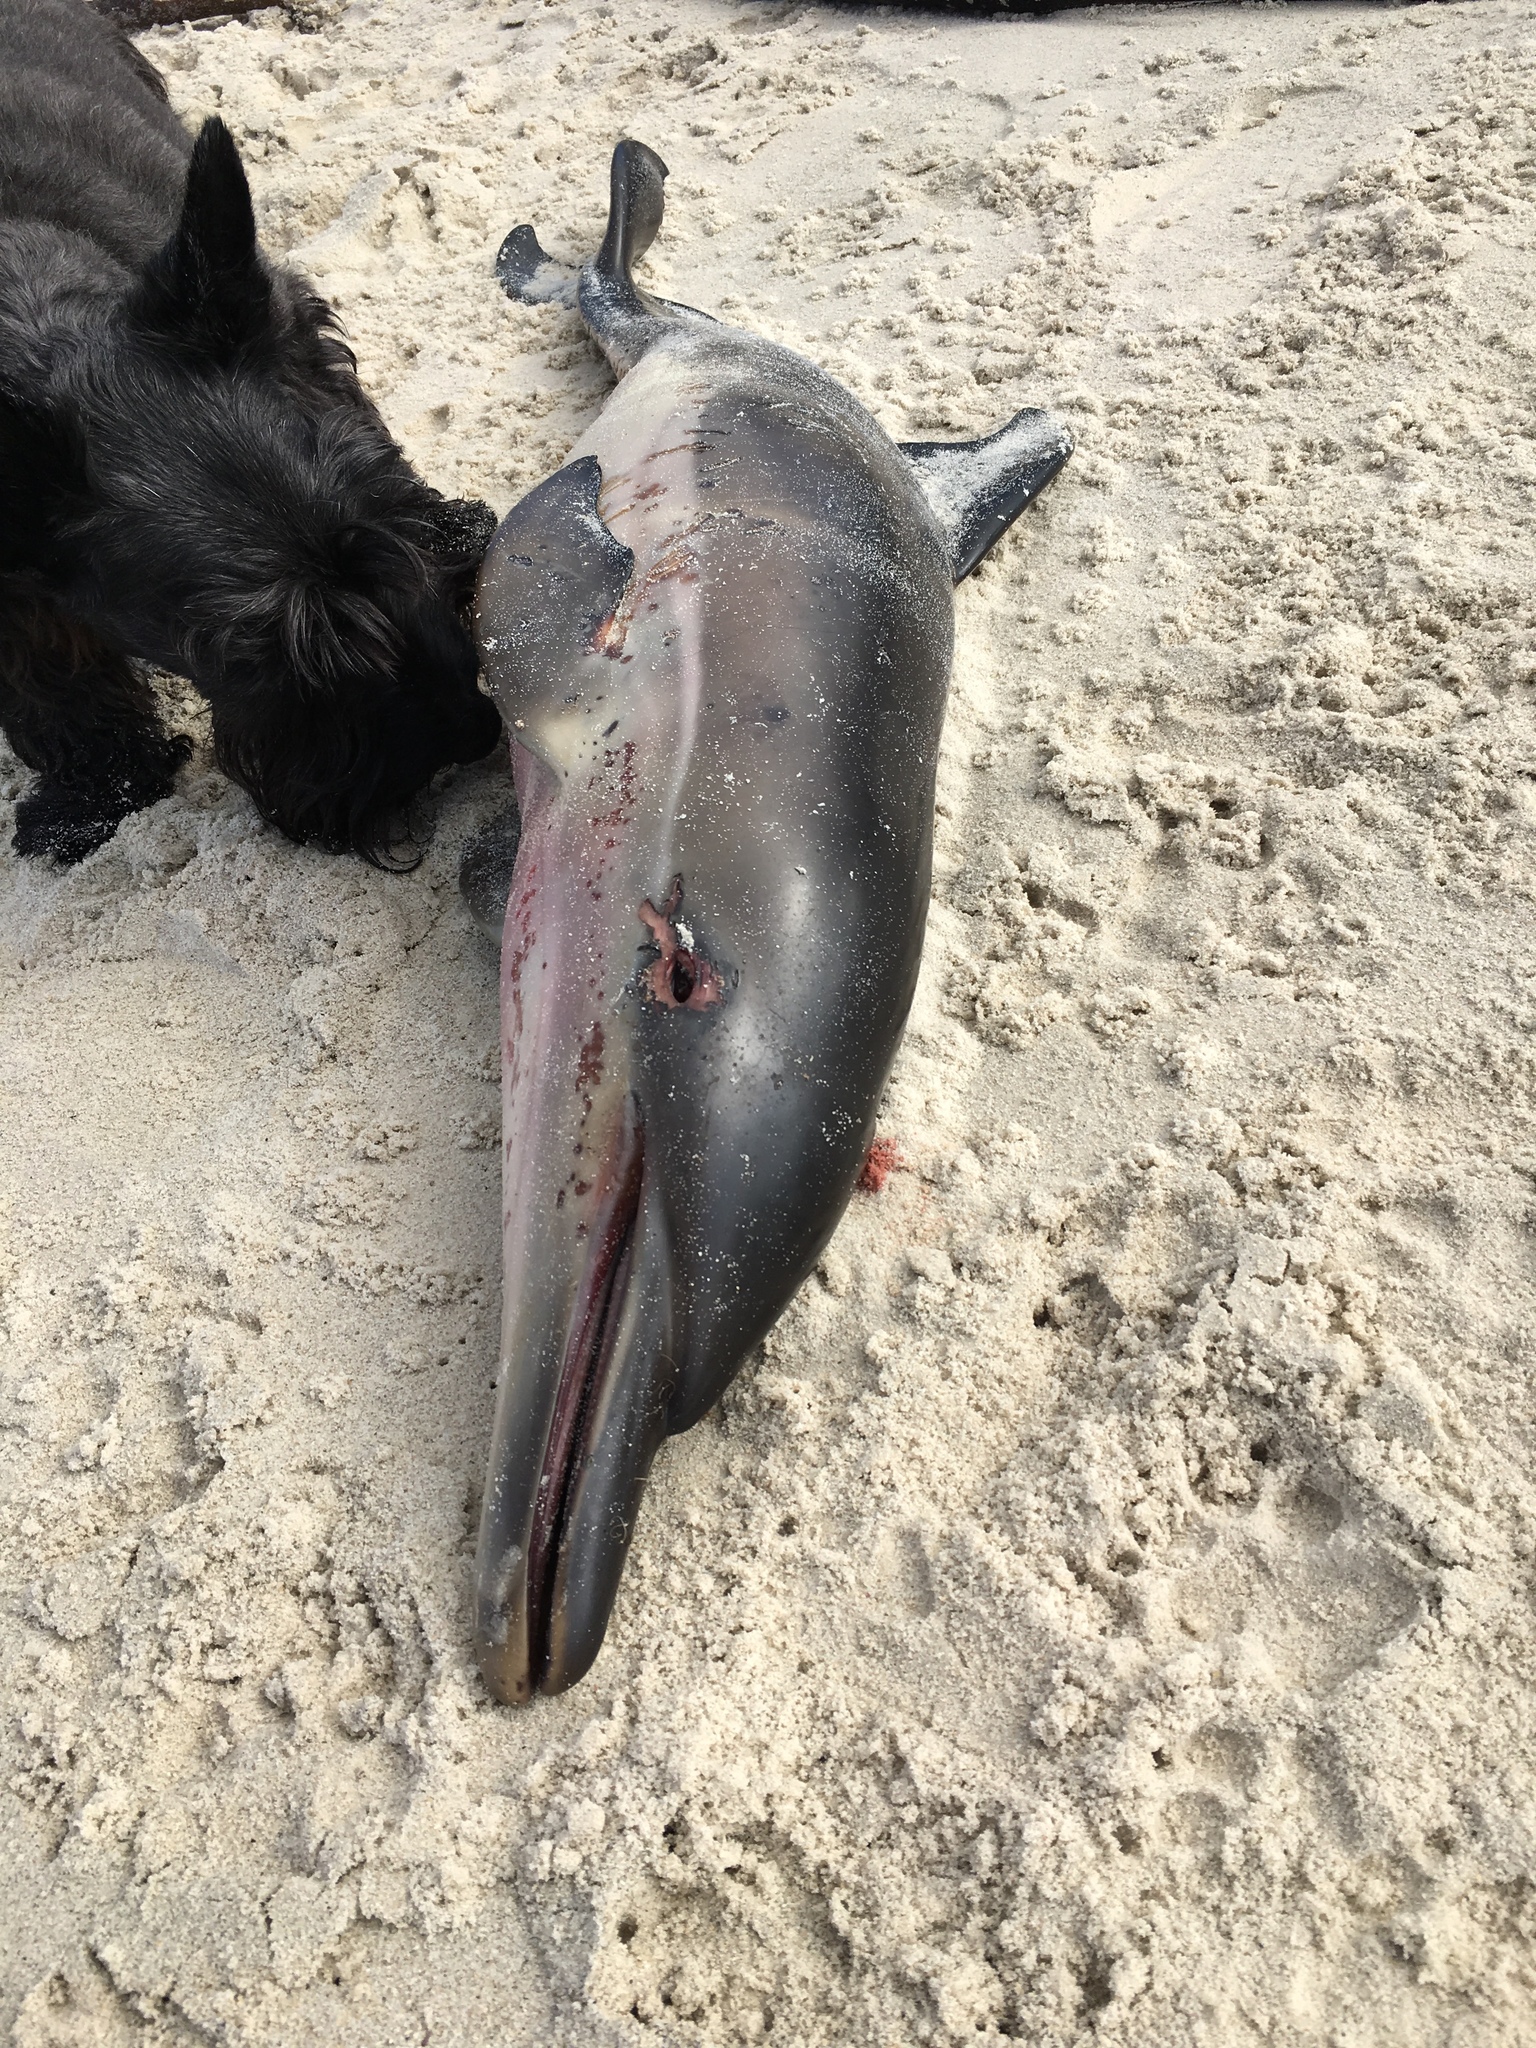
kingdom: Animalia
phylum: Chordata
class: Mammalia
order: Cetacea
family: Delphinidae
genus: Delphinus
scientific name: Delphinus delphis
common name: Common dolphin
